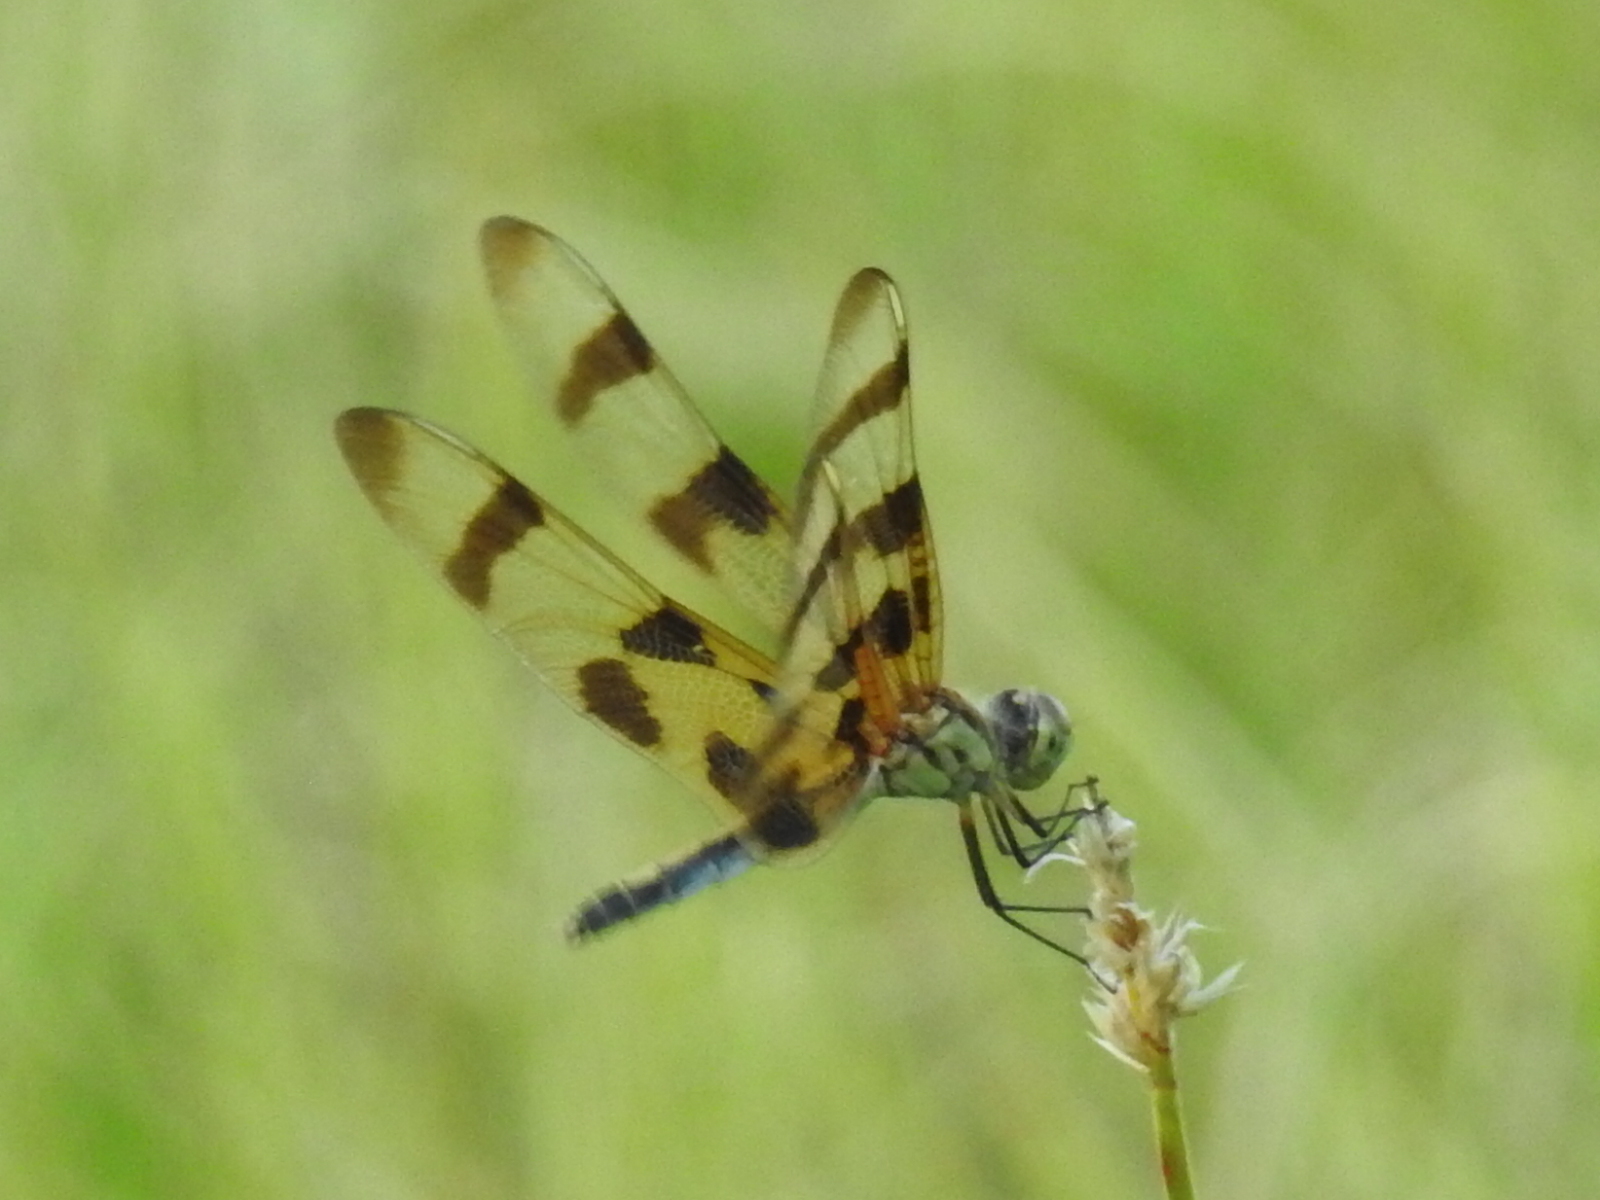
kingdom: Animalia
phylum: Arthropoda
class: Insecta
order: Odonata
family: Libellulidae
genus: Celithemis
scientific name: Celithemis eponina
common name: Halloween pennant
